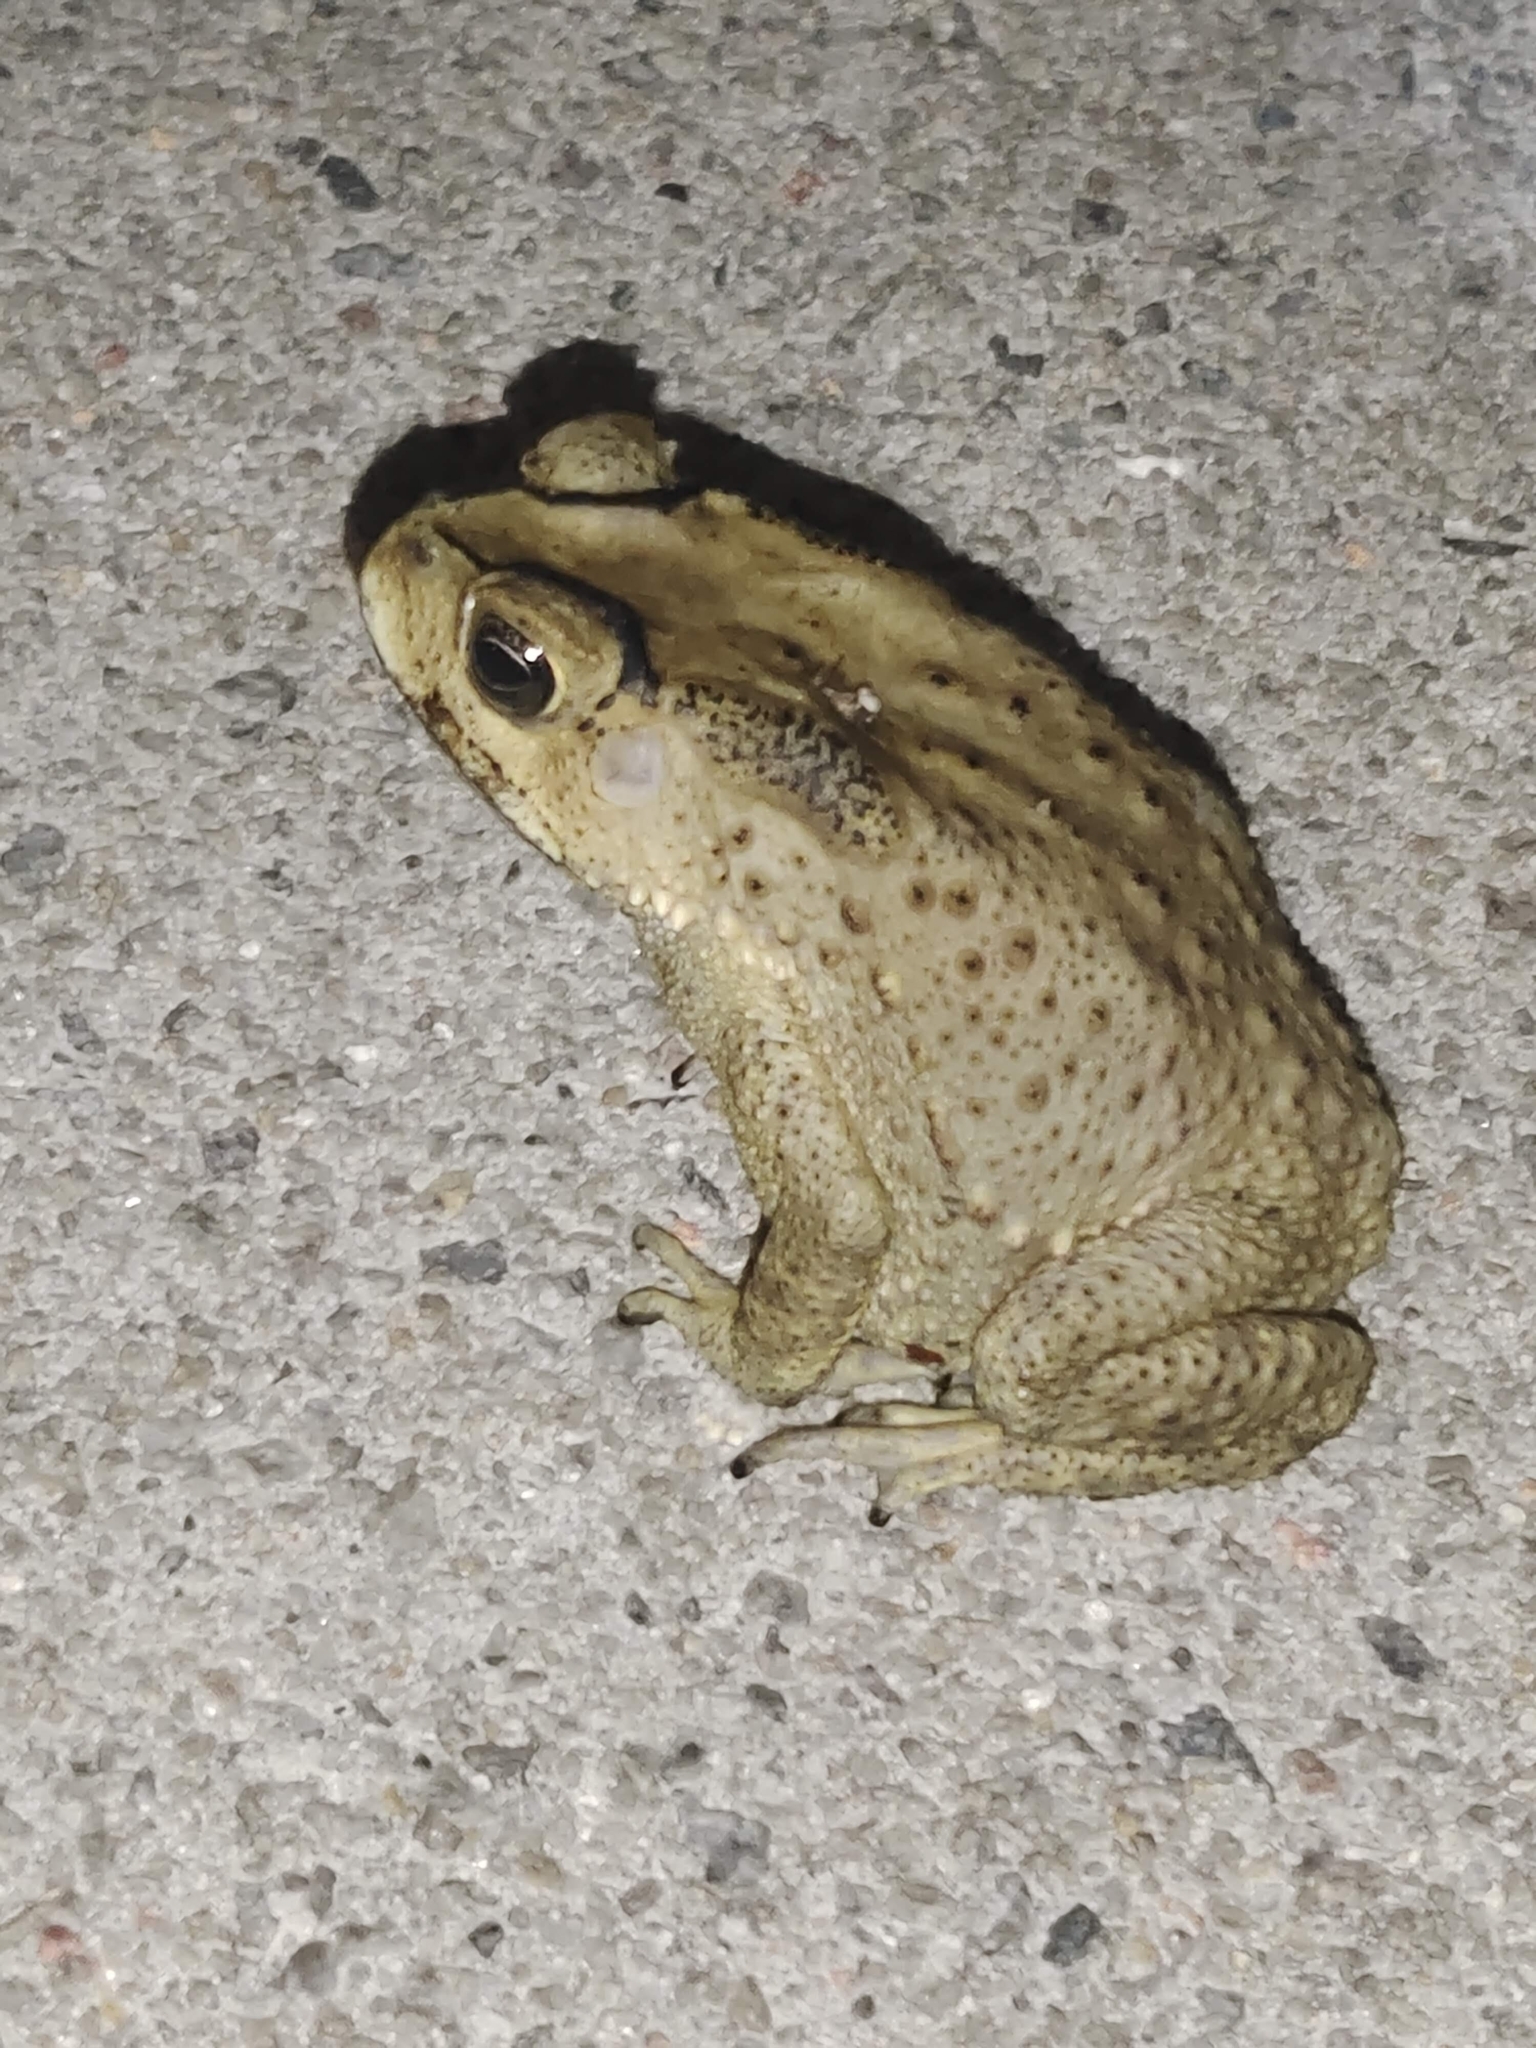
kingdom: Animalia
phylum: Chordata
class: Amphibia
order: Anura
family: Bufonidae
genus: Duttaphrynus
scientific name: Duttaphrynus melanostictus
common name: Common sunda toad
